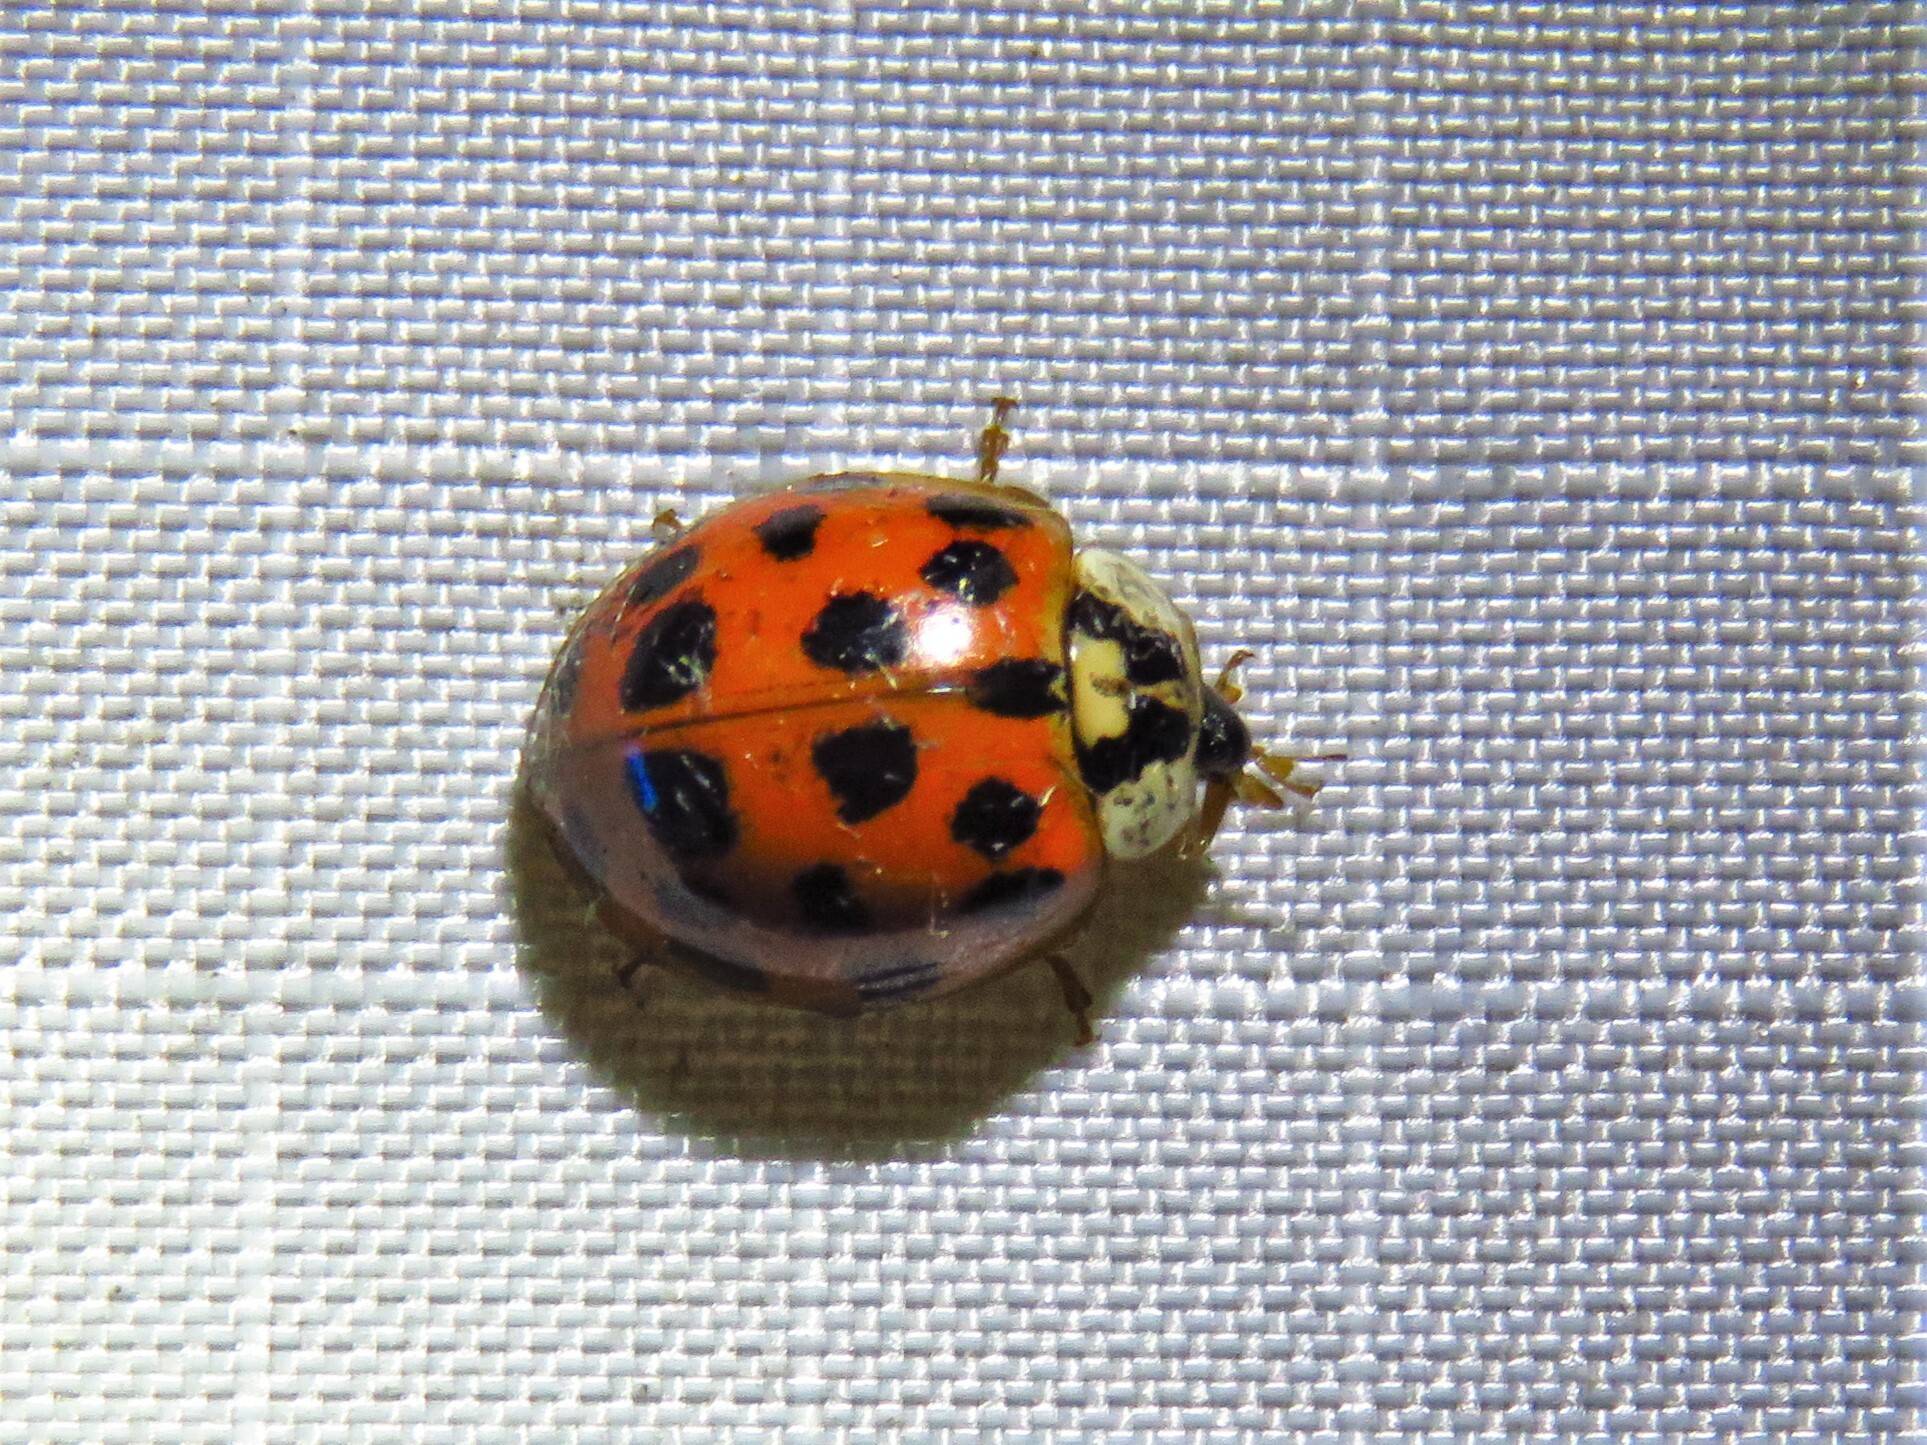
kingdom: Animalia
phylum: Arthropoda
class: Insecta
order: Coleoptera
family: Coccinellidae
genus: Harmonia
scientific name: Harmonia axyridis
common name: Harlequin ladybird
